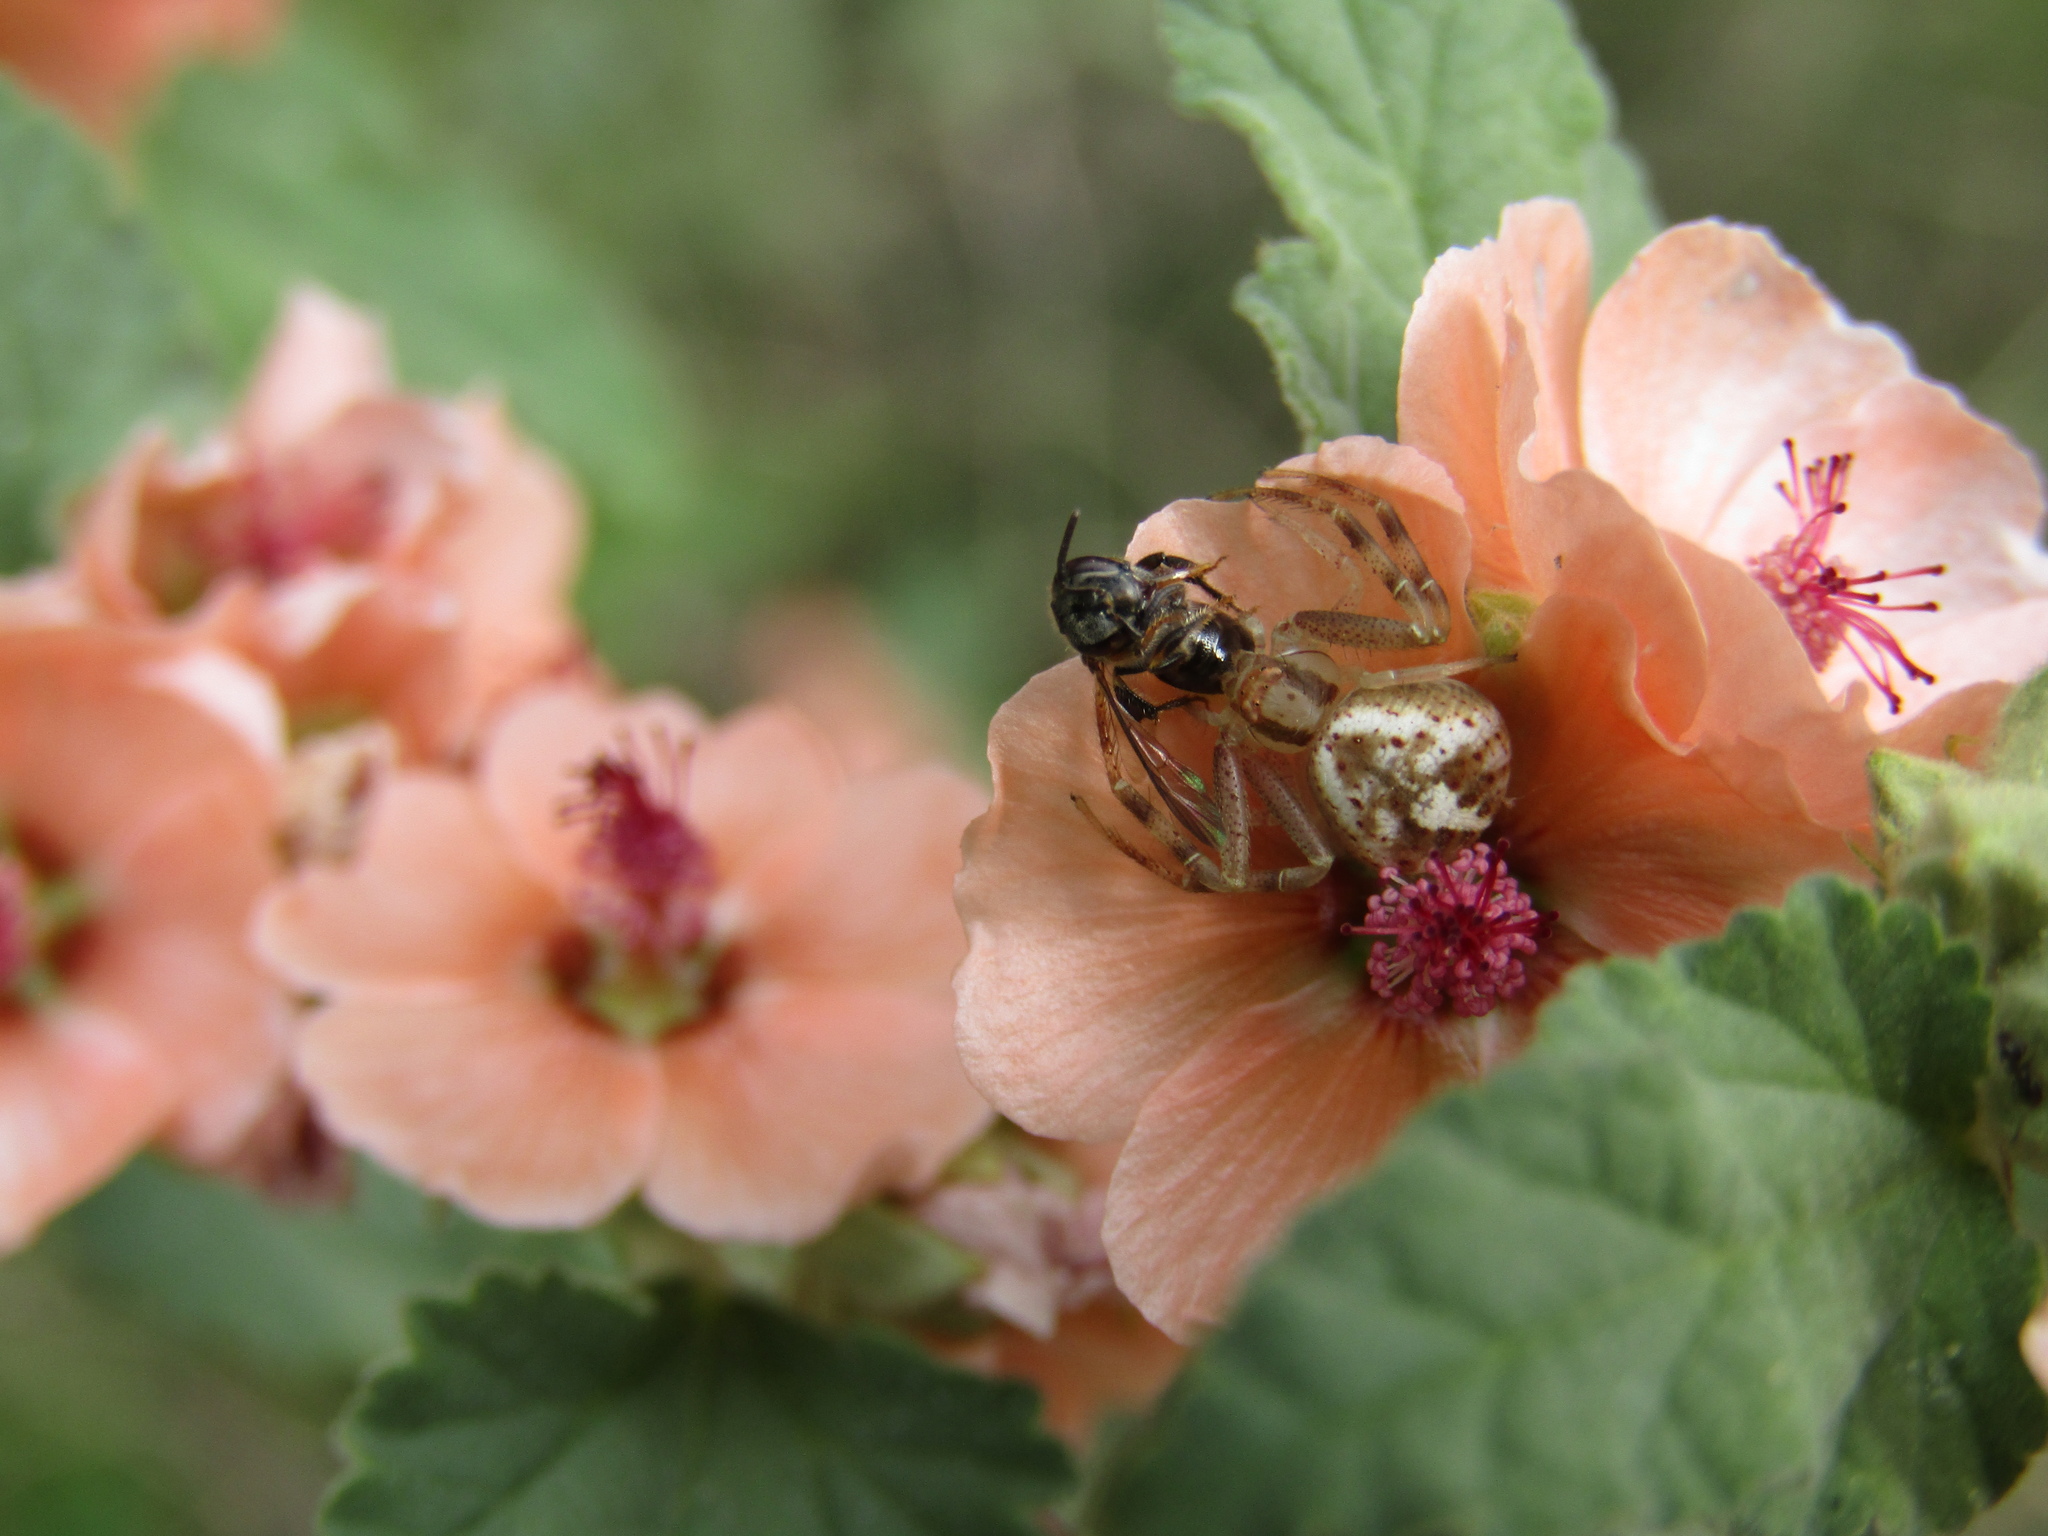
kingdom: Animalia
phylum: Arthropoda
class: Arachnida
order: Araneae
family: Thomisidae
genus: Misumenops
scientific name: Misumenops
